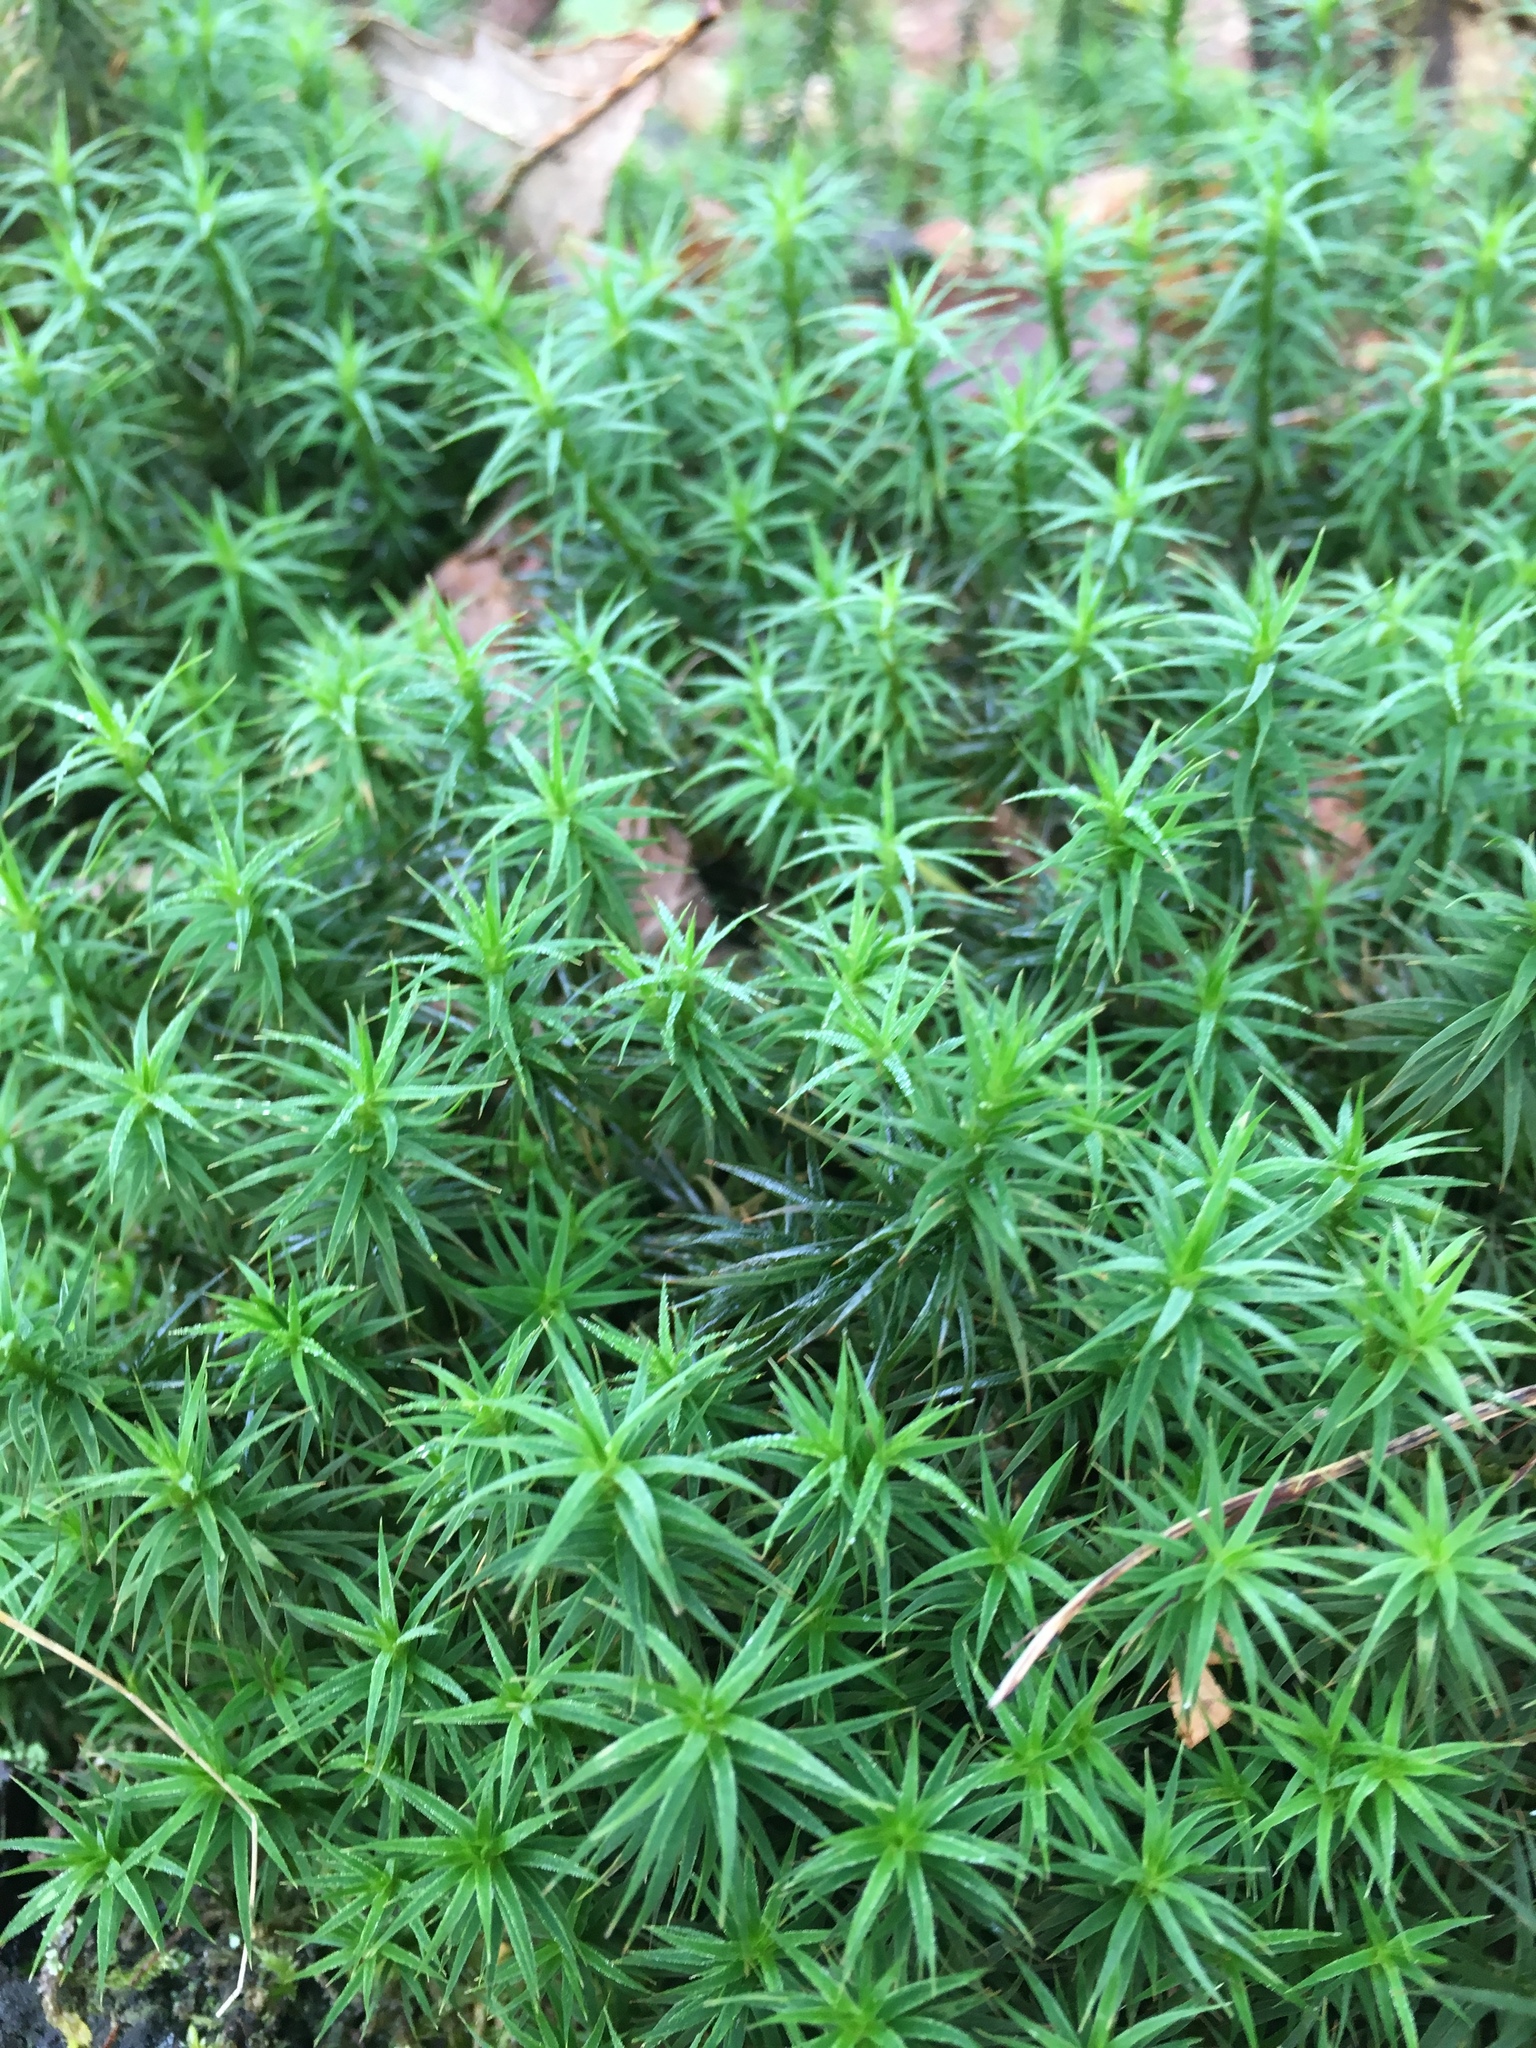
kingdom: Plantae
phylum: Bryophyta
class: Polytrichopsida
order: Polytrichales
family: Polytrichaceae
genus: Polytrichum
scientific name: Polytrichum formosum
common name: Bank haircap moss
